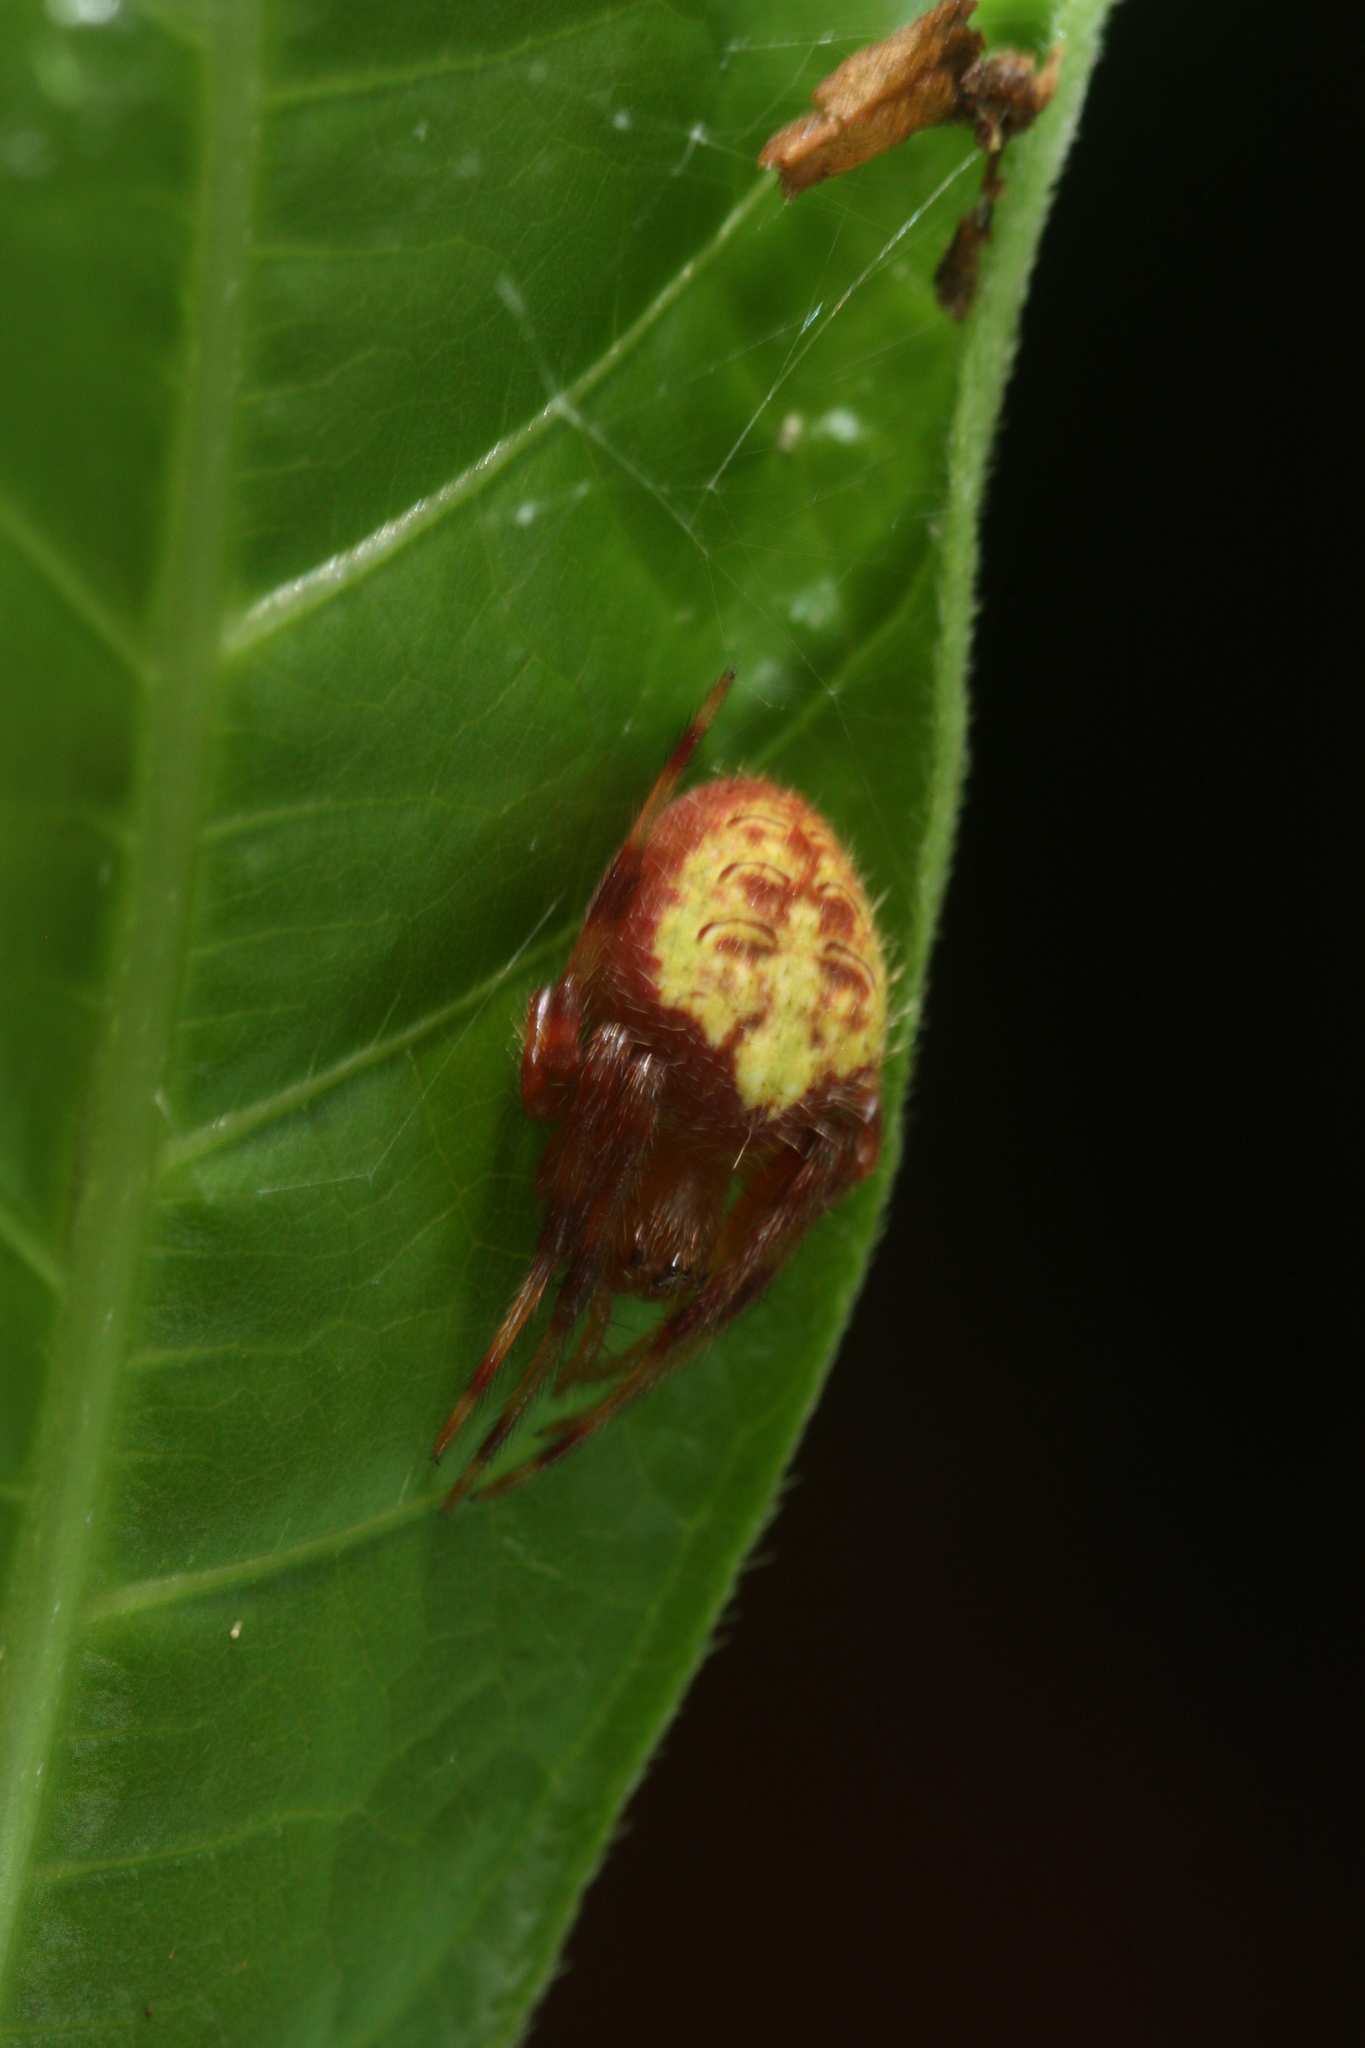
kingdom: Animalia
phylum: Arthropoda
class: Arachnida
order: Araneae
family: Araneidae
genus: Eriophora
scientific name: Eriophora ravilla
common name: Orb weavers
